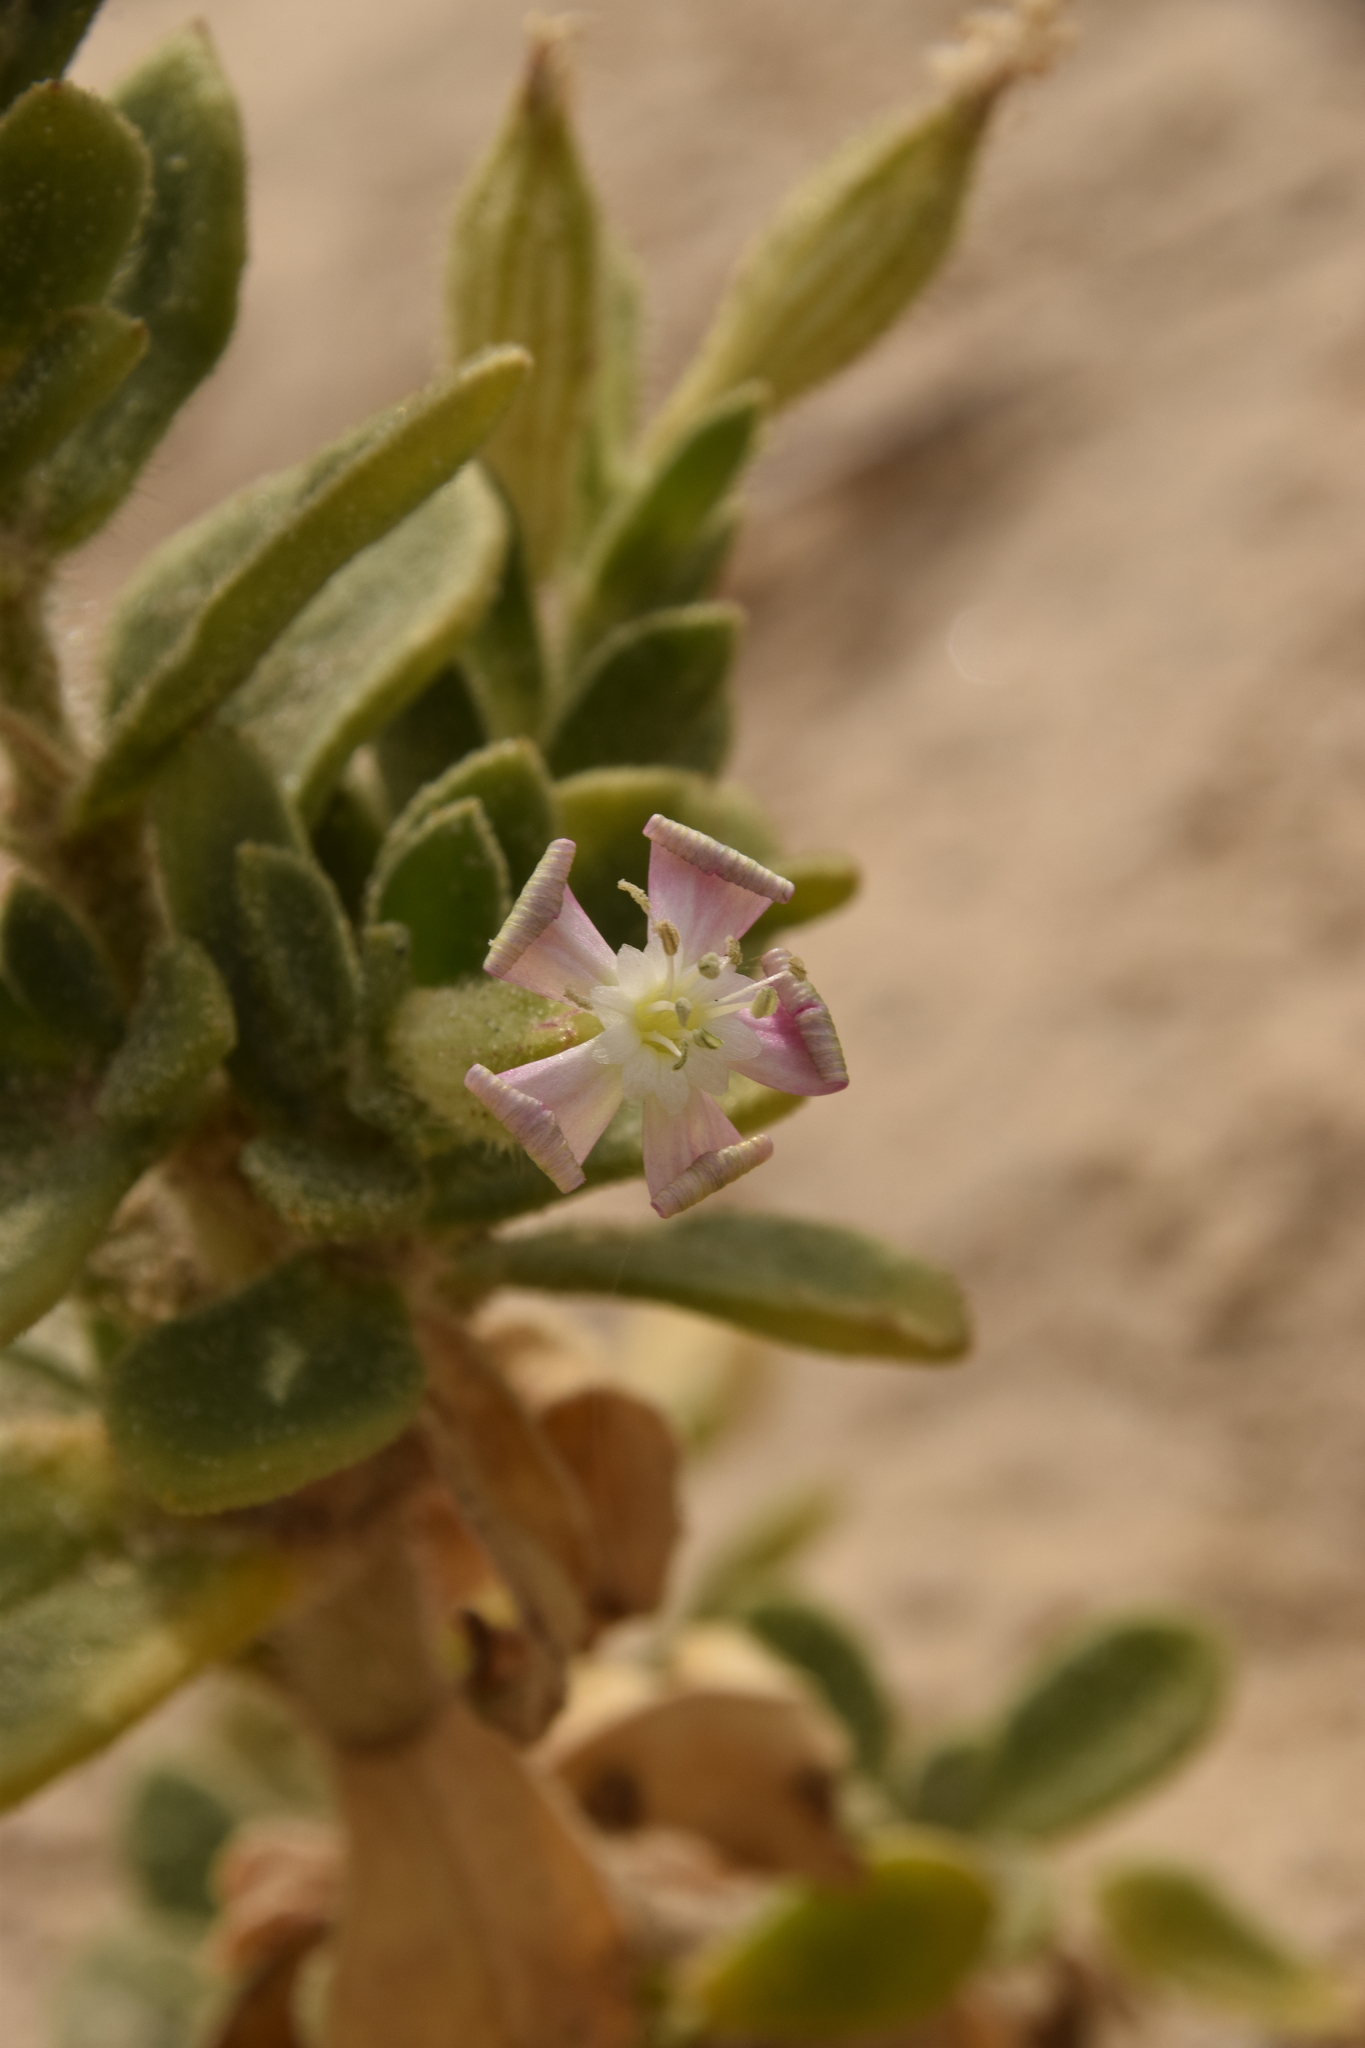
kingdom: Plantae
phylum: Tracheophyta
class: Magnoliopsida
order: Caryophyllales
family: Caryophyllaceae
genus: Silene
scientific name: Silene succulenta
